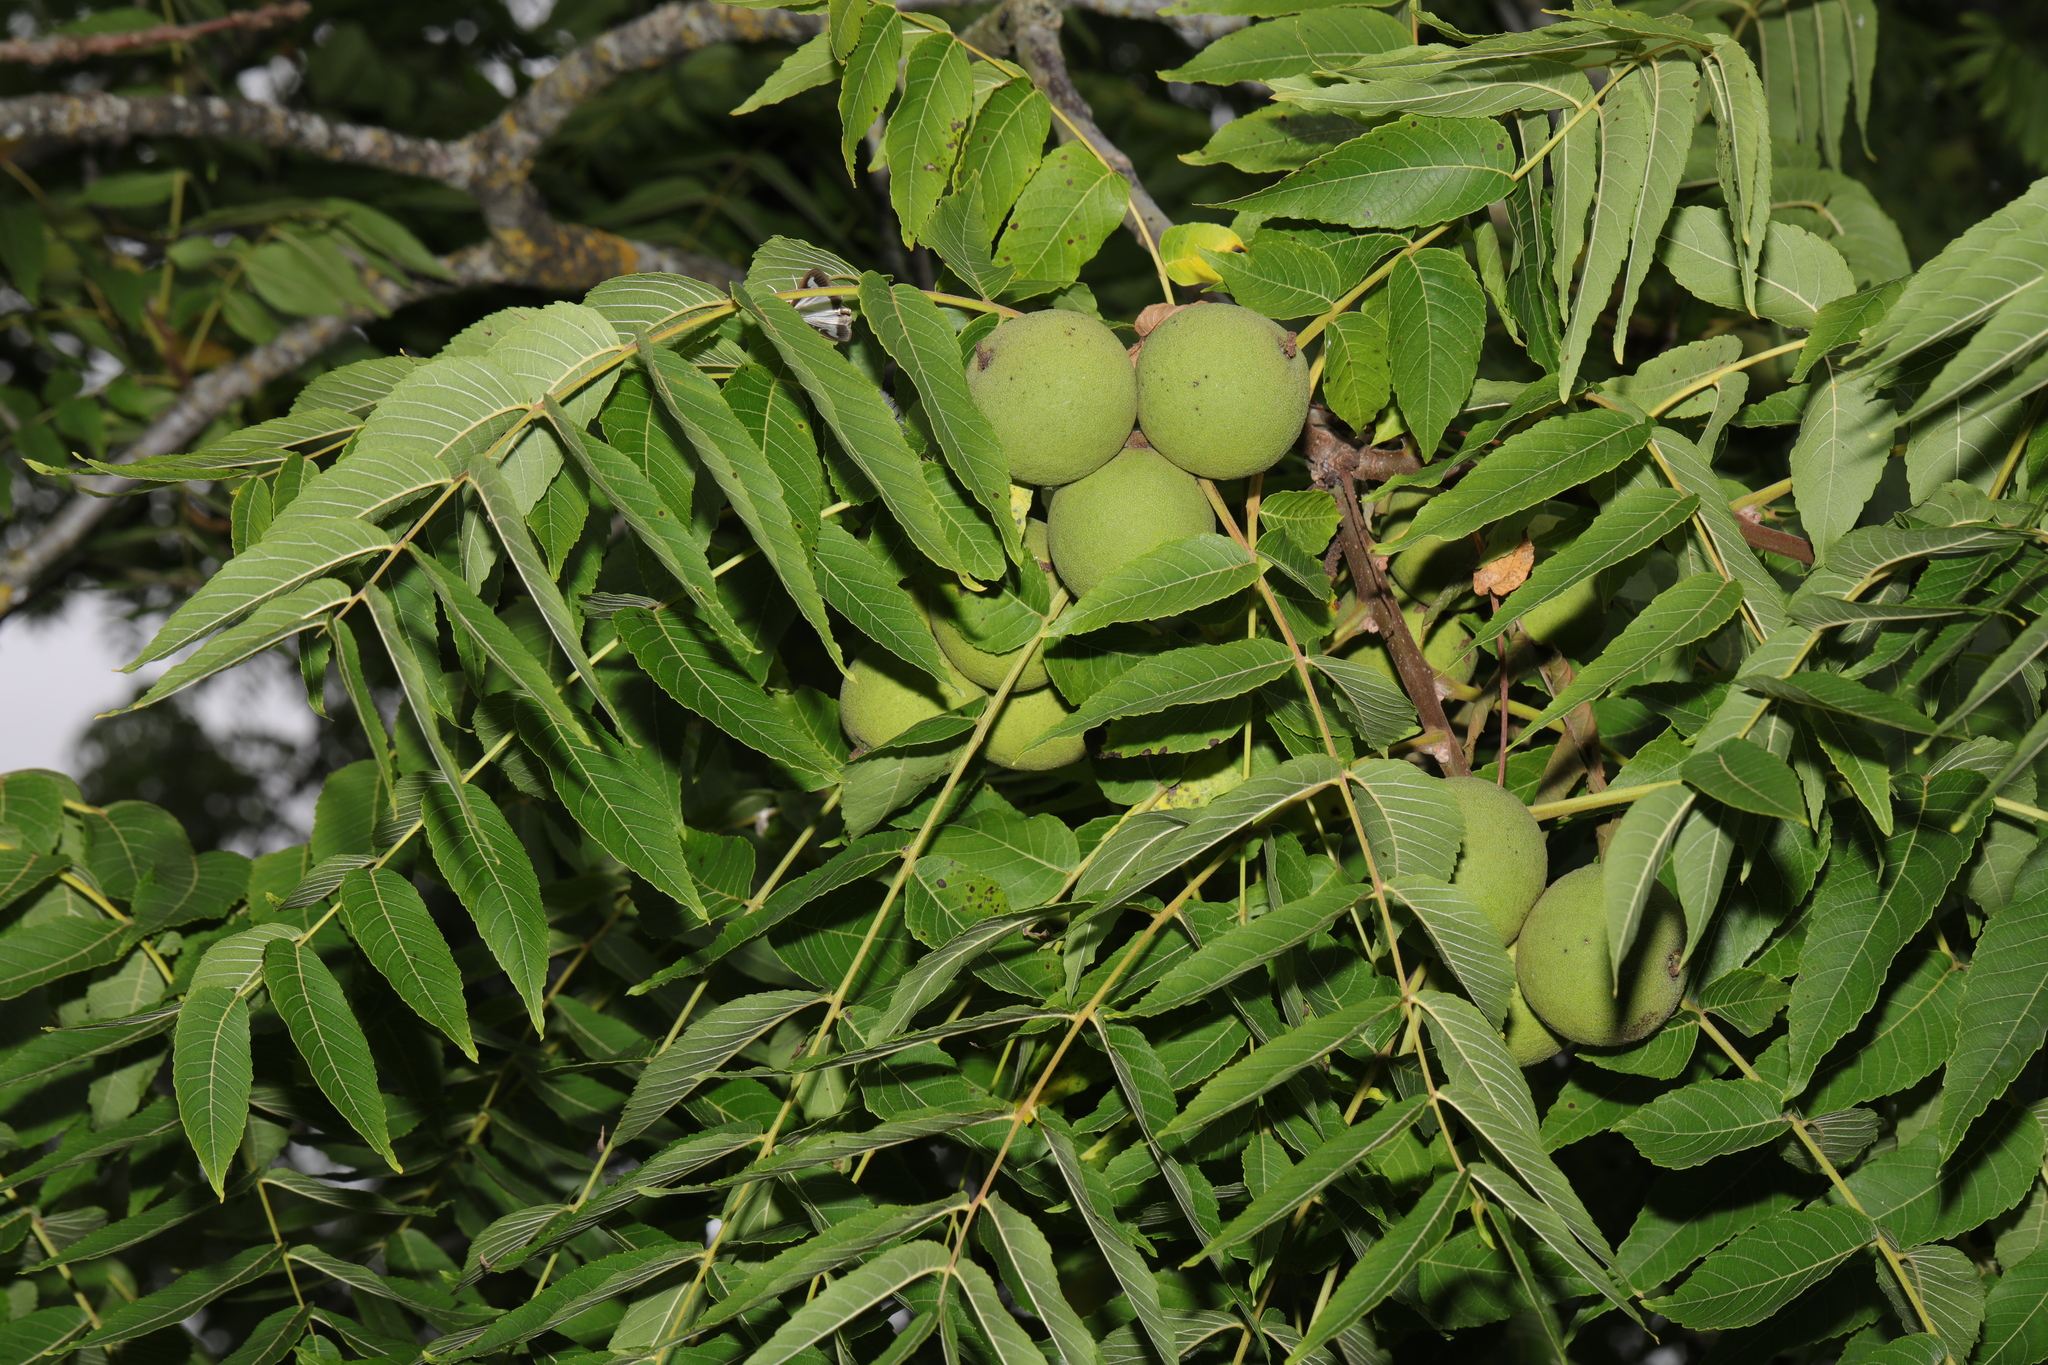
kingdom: Plantae
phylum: Tracheophyta
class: Magnoliopsida
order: Fagales
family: Juglandaceae
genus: Juglans
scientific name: Juglans nigra
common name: Black walnut
